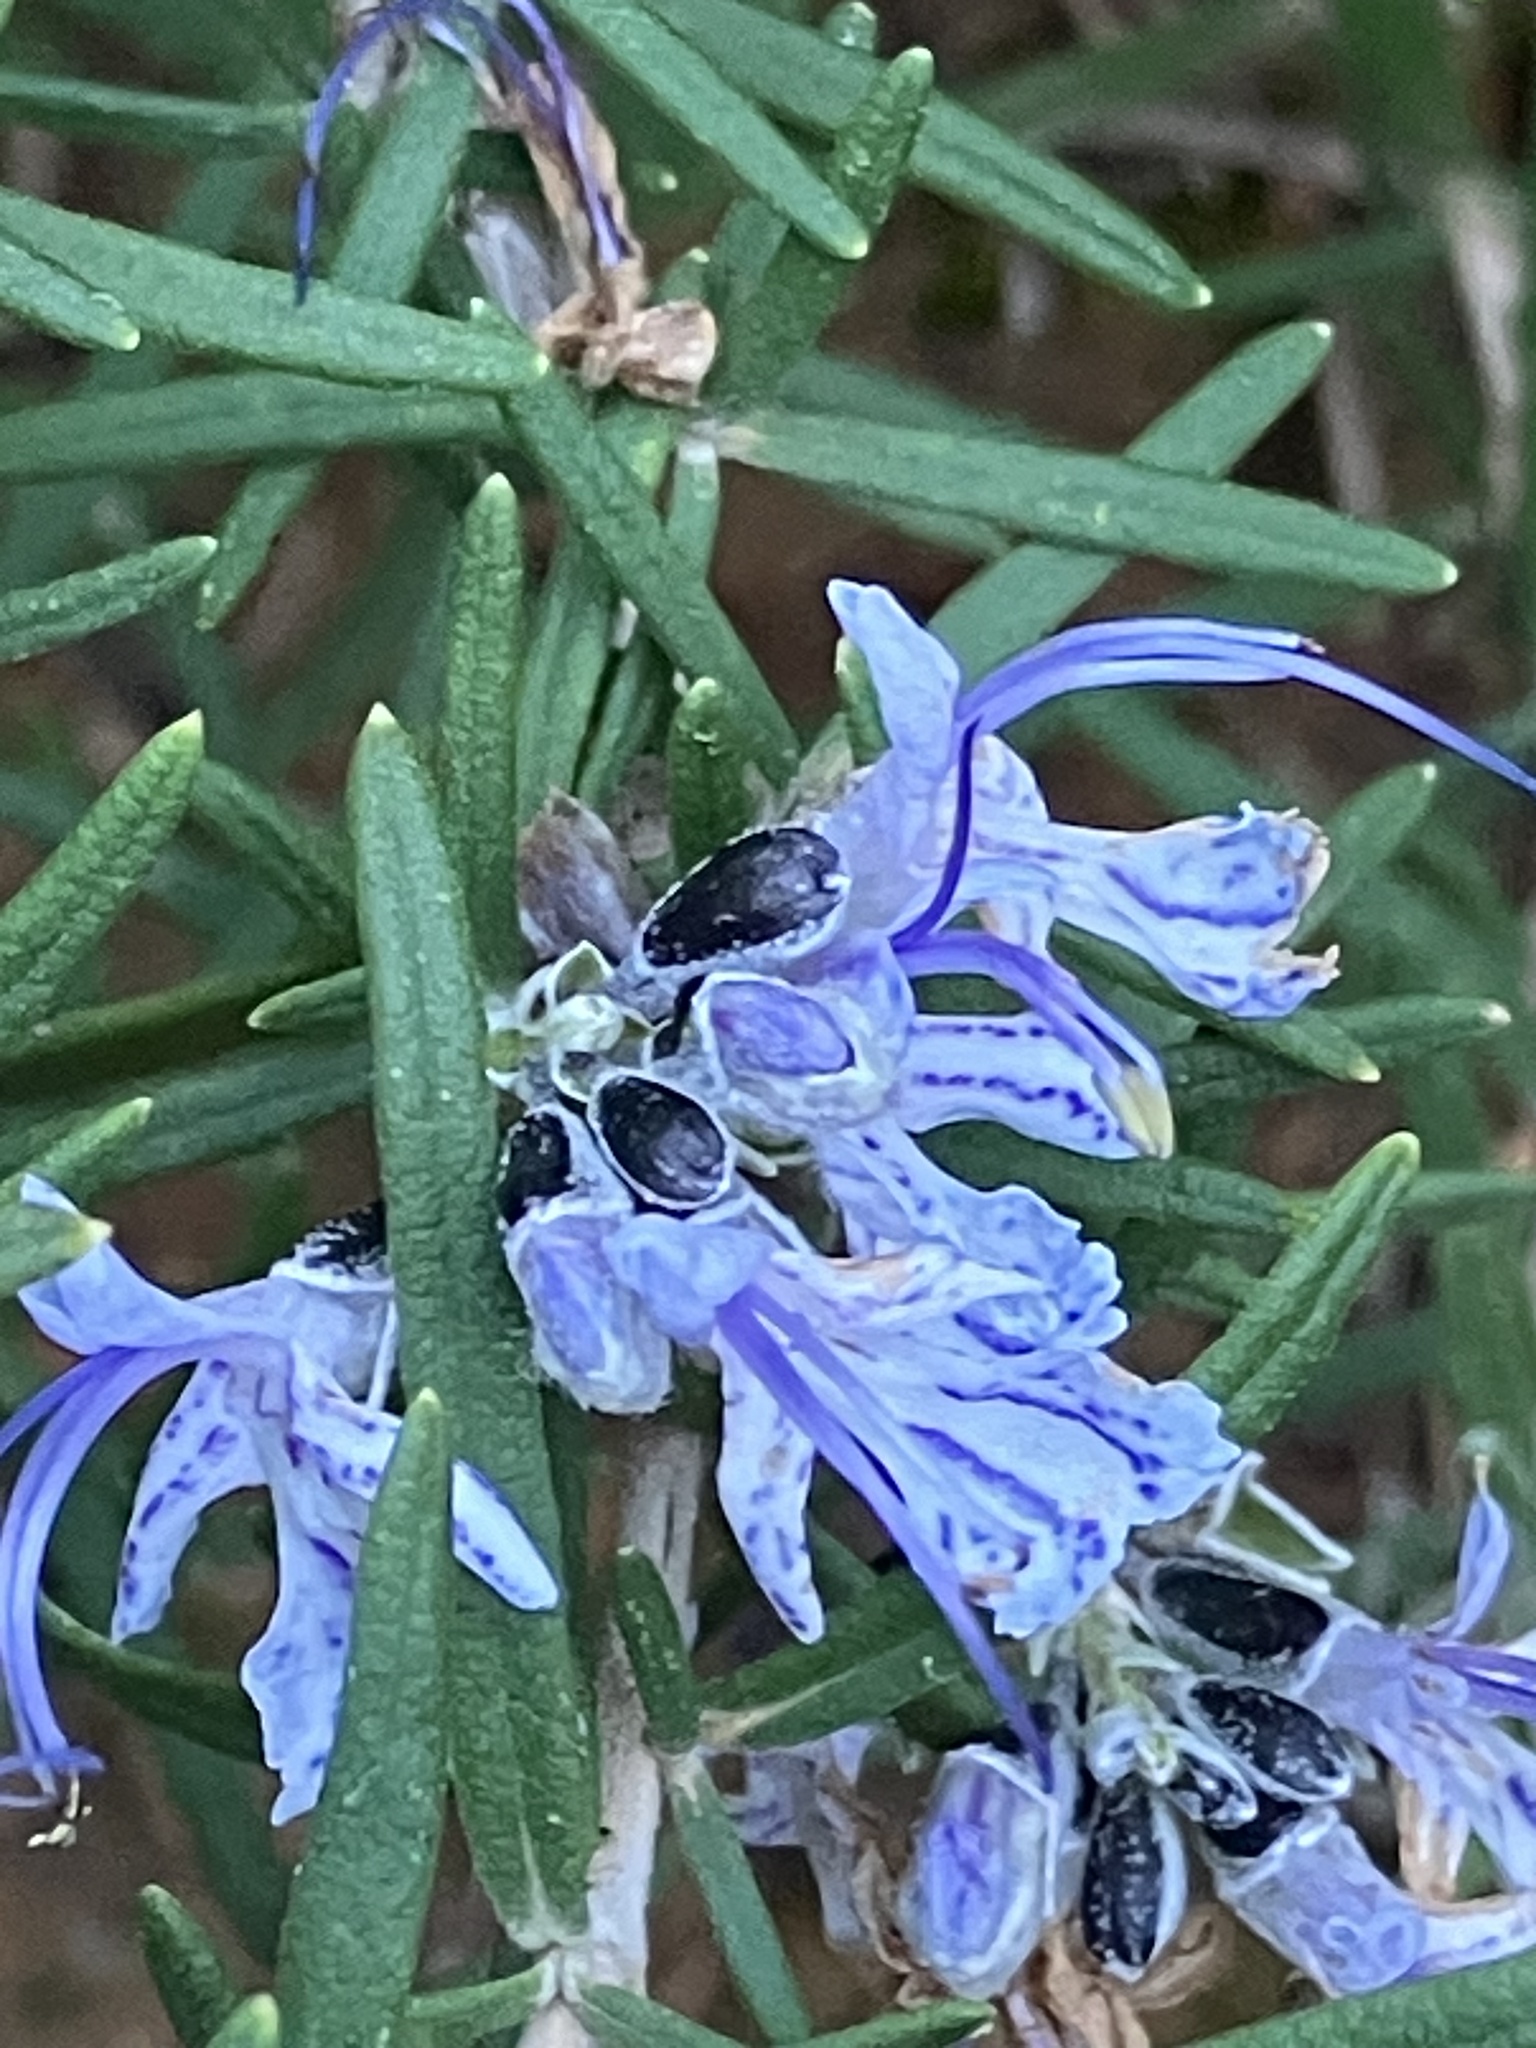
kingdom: Plantae
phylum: Tracheophyta
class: Magnoliopsida
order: Lamiales
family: Lamiaceae
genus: Salvia
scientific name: Salvia rosmarinus
